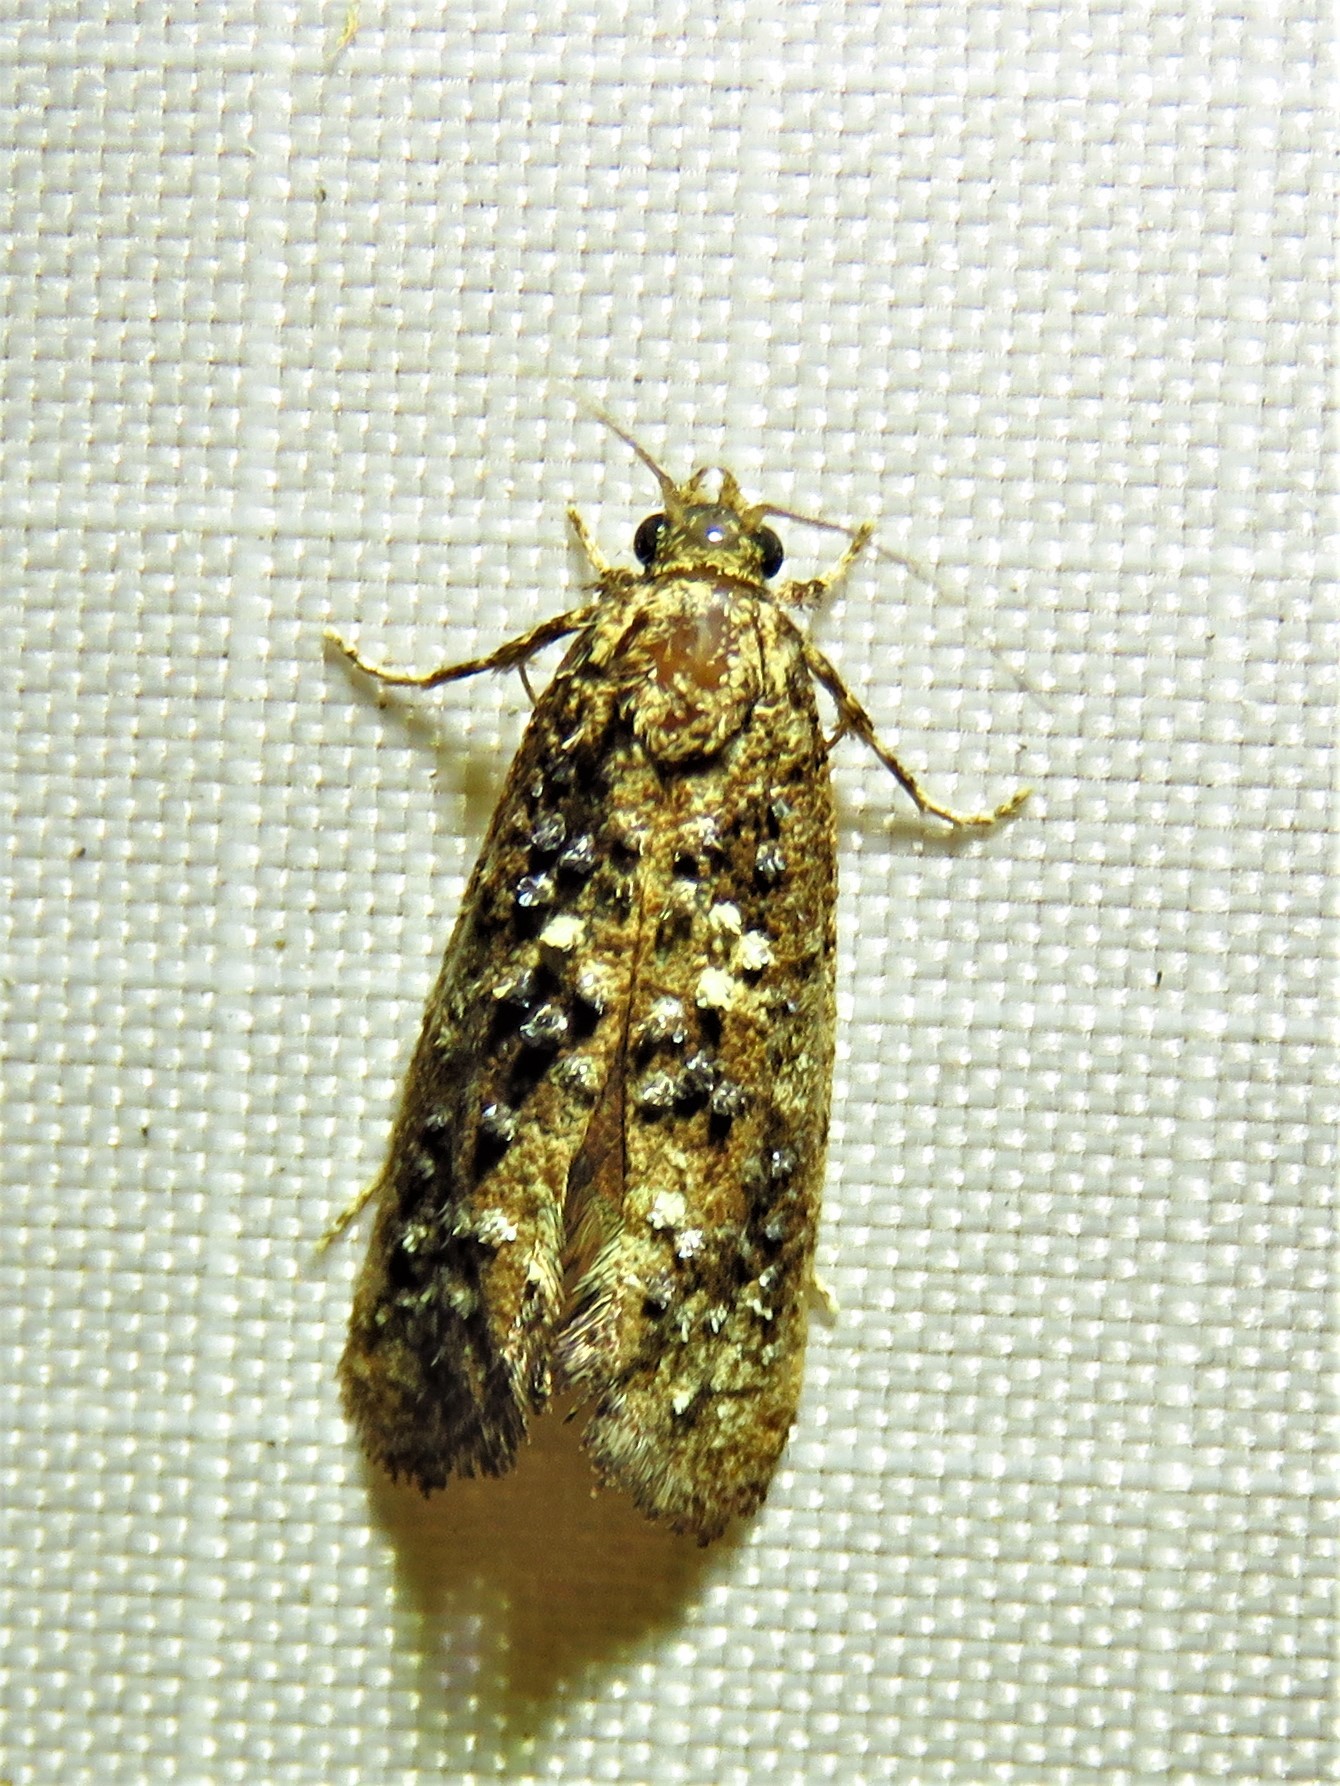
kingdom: Animalia
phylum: Arthropoda
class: Insecta
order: Lepidoptera
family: Tineidae
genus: Acrolophus
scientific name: Acrolophus cressoni
